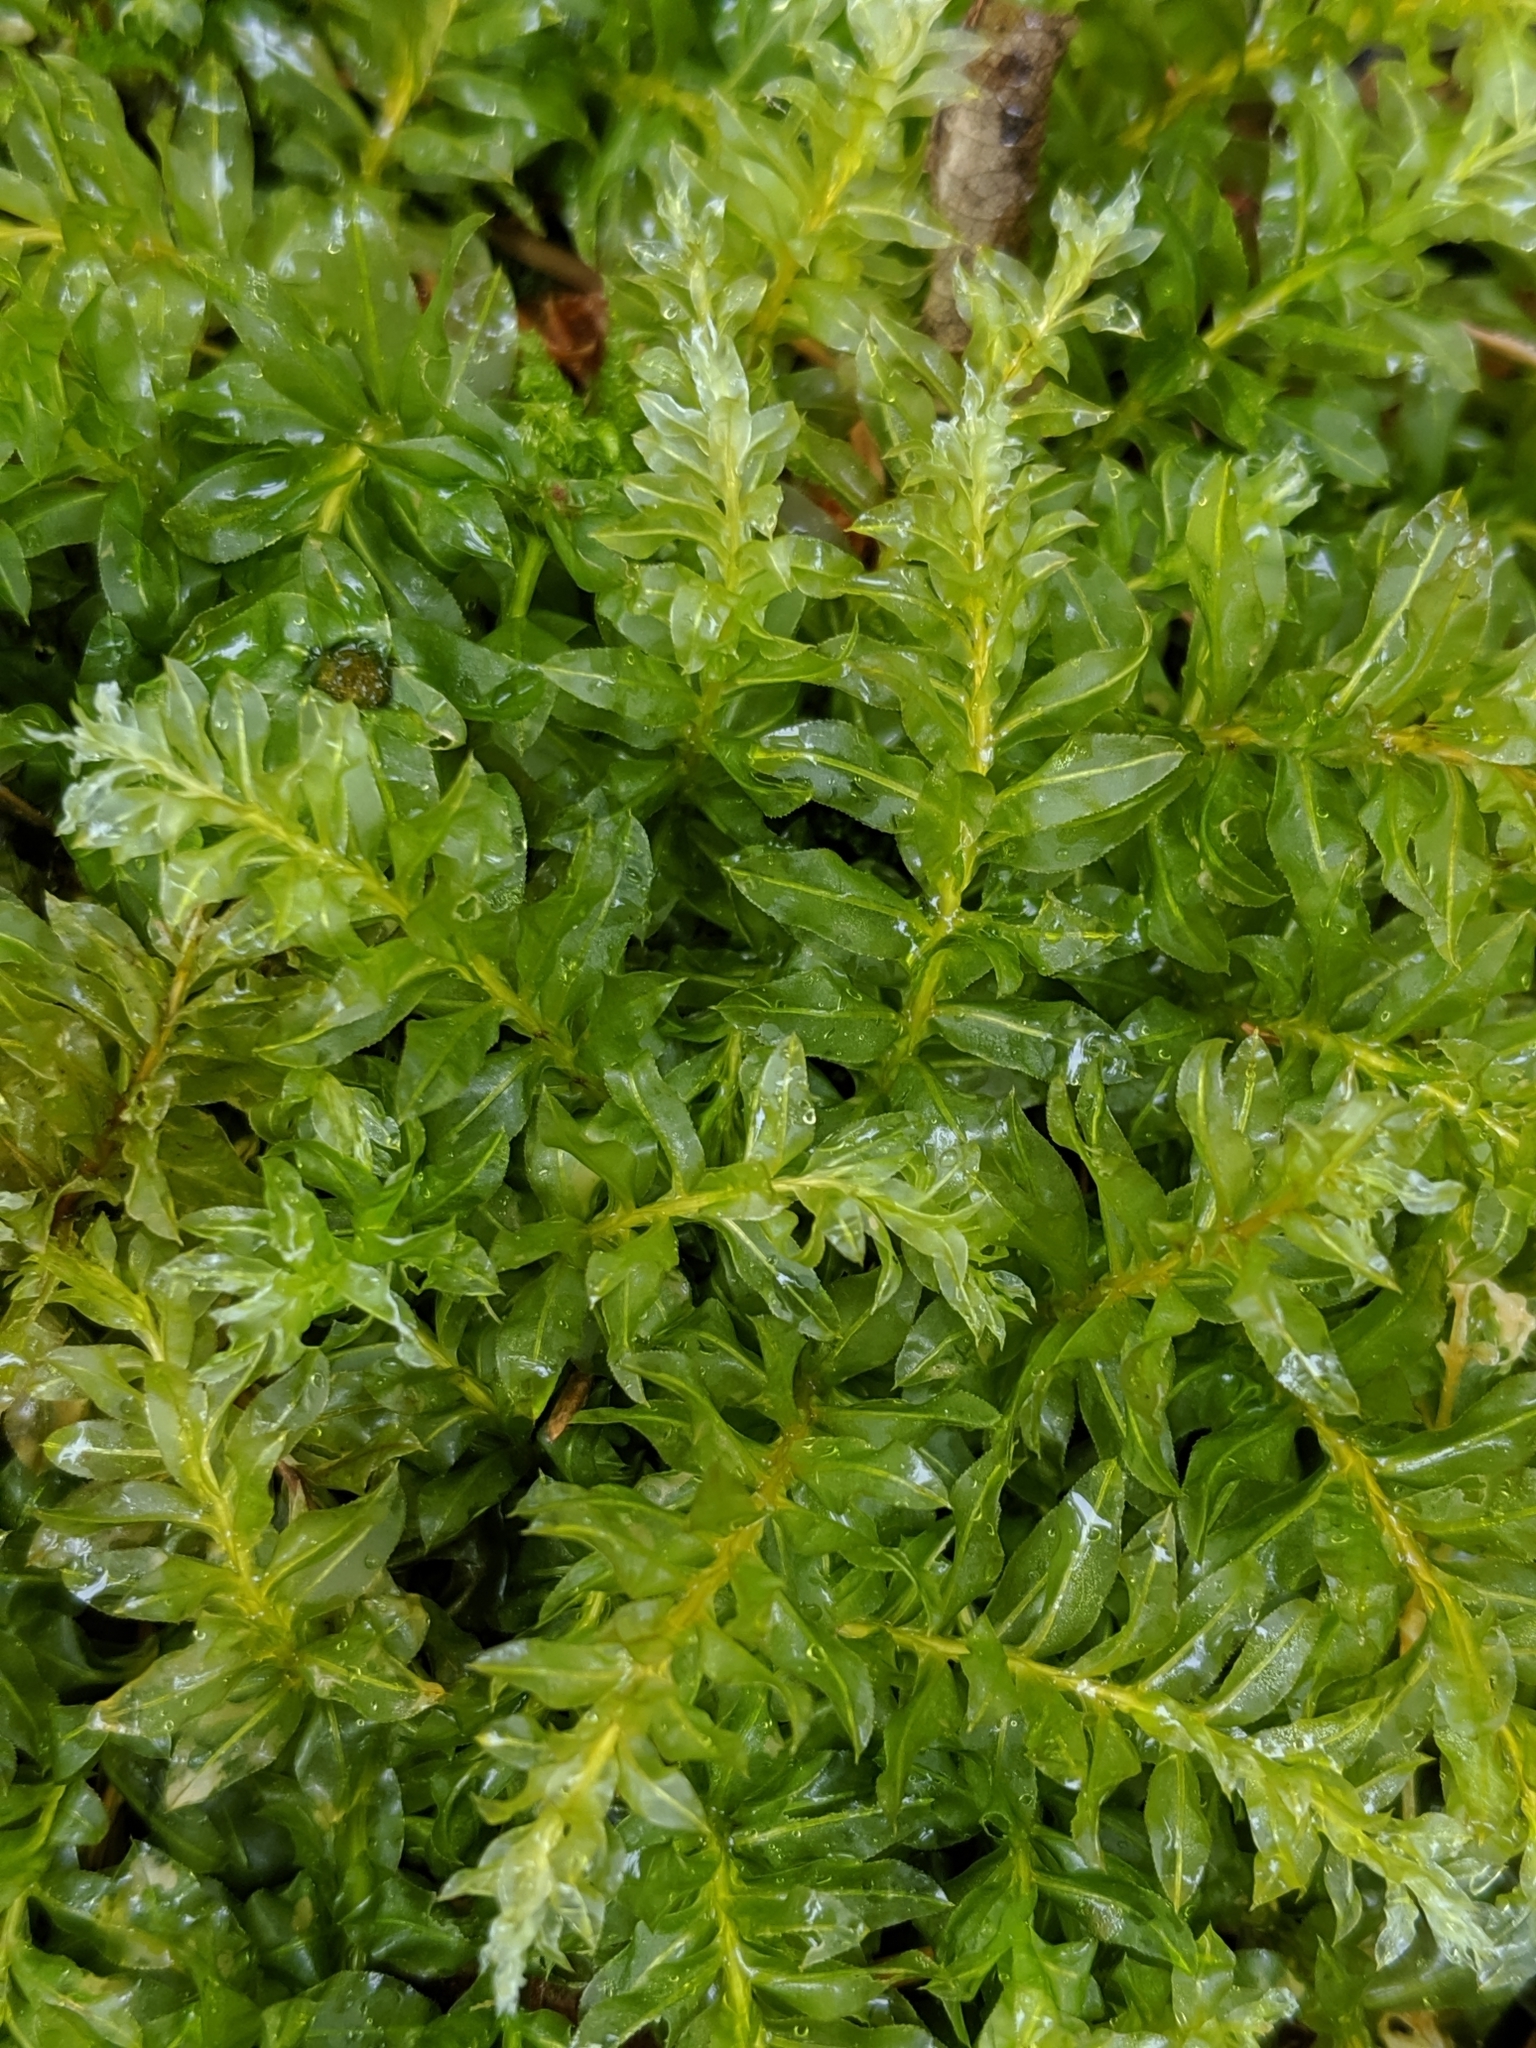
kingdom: Plantae
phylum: Bryophyta
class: Bryopsida
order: Bryales
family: Mniaceae
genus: Plagiomnium
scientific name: Plagiomnium insigne
